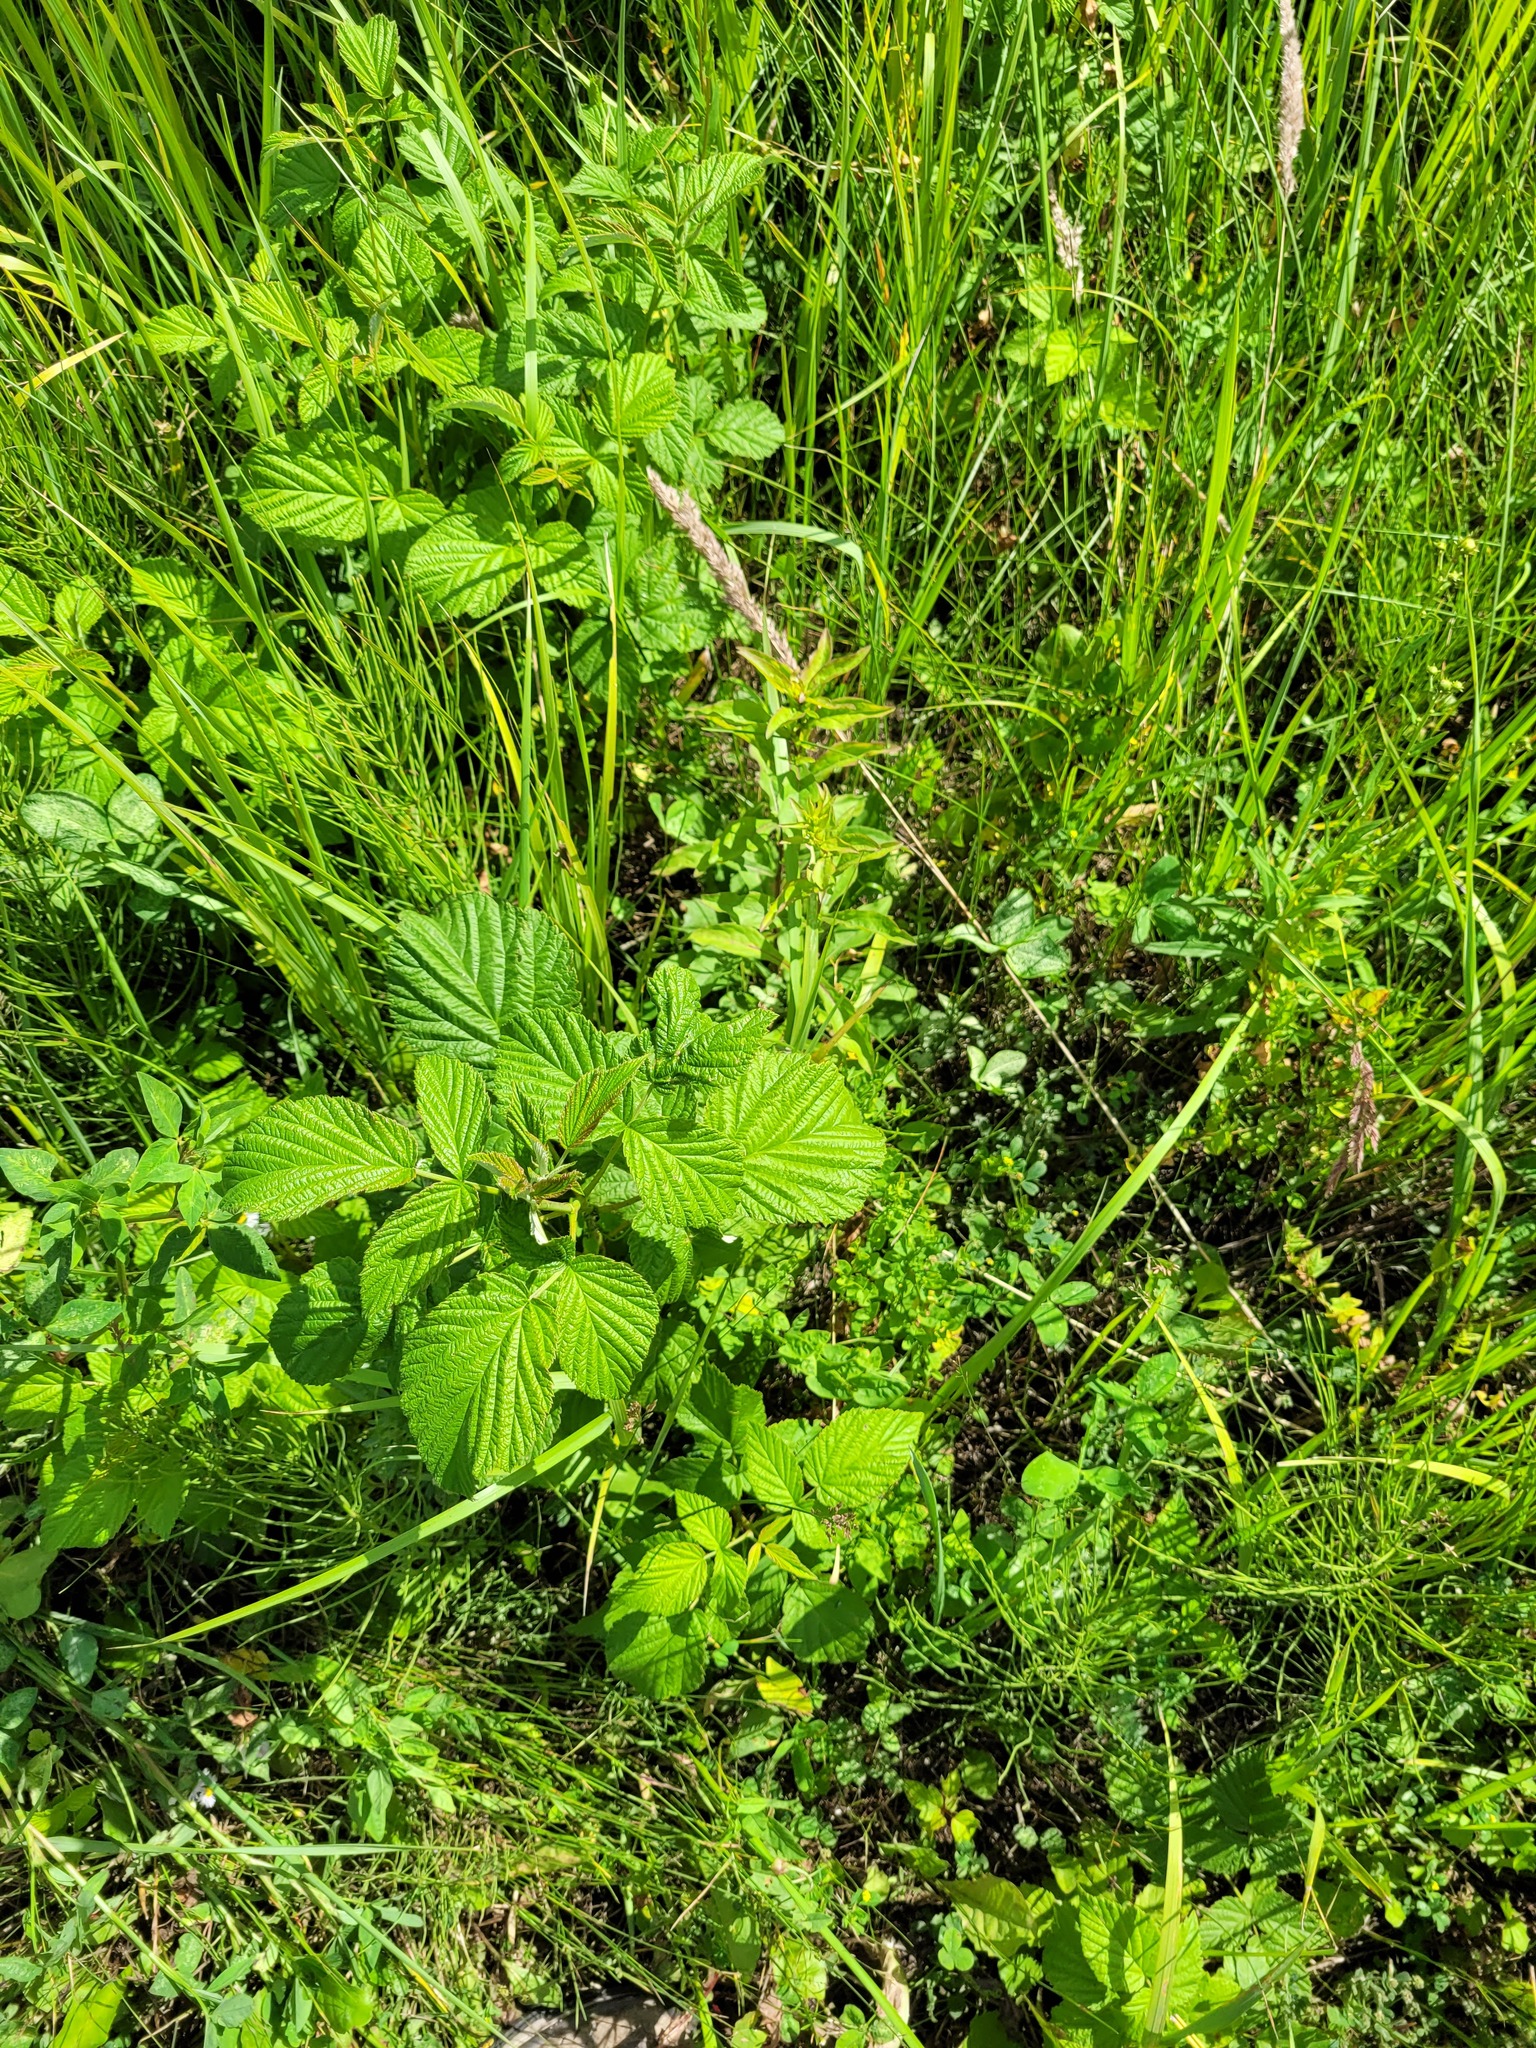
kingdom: Plantae
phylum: Tracheophyta
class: Magnoliopsida
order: Rosales
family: Rosaceae
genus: Rubus
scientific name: Rubus idaeus
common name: Raspberry
